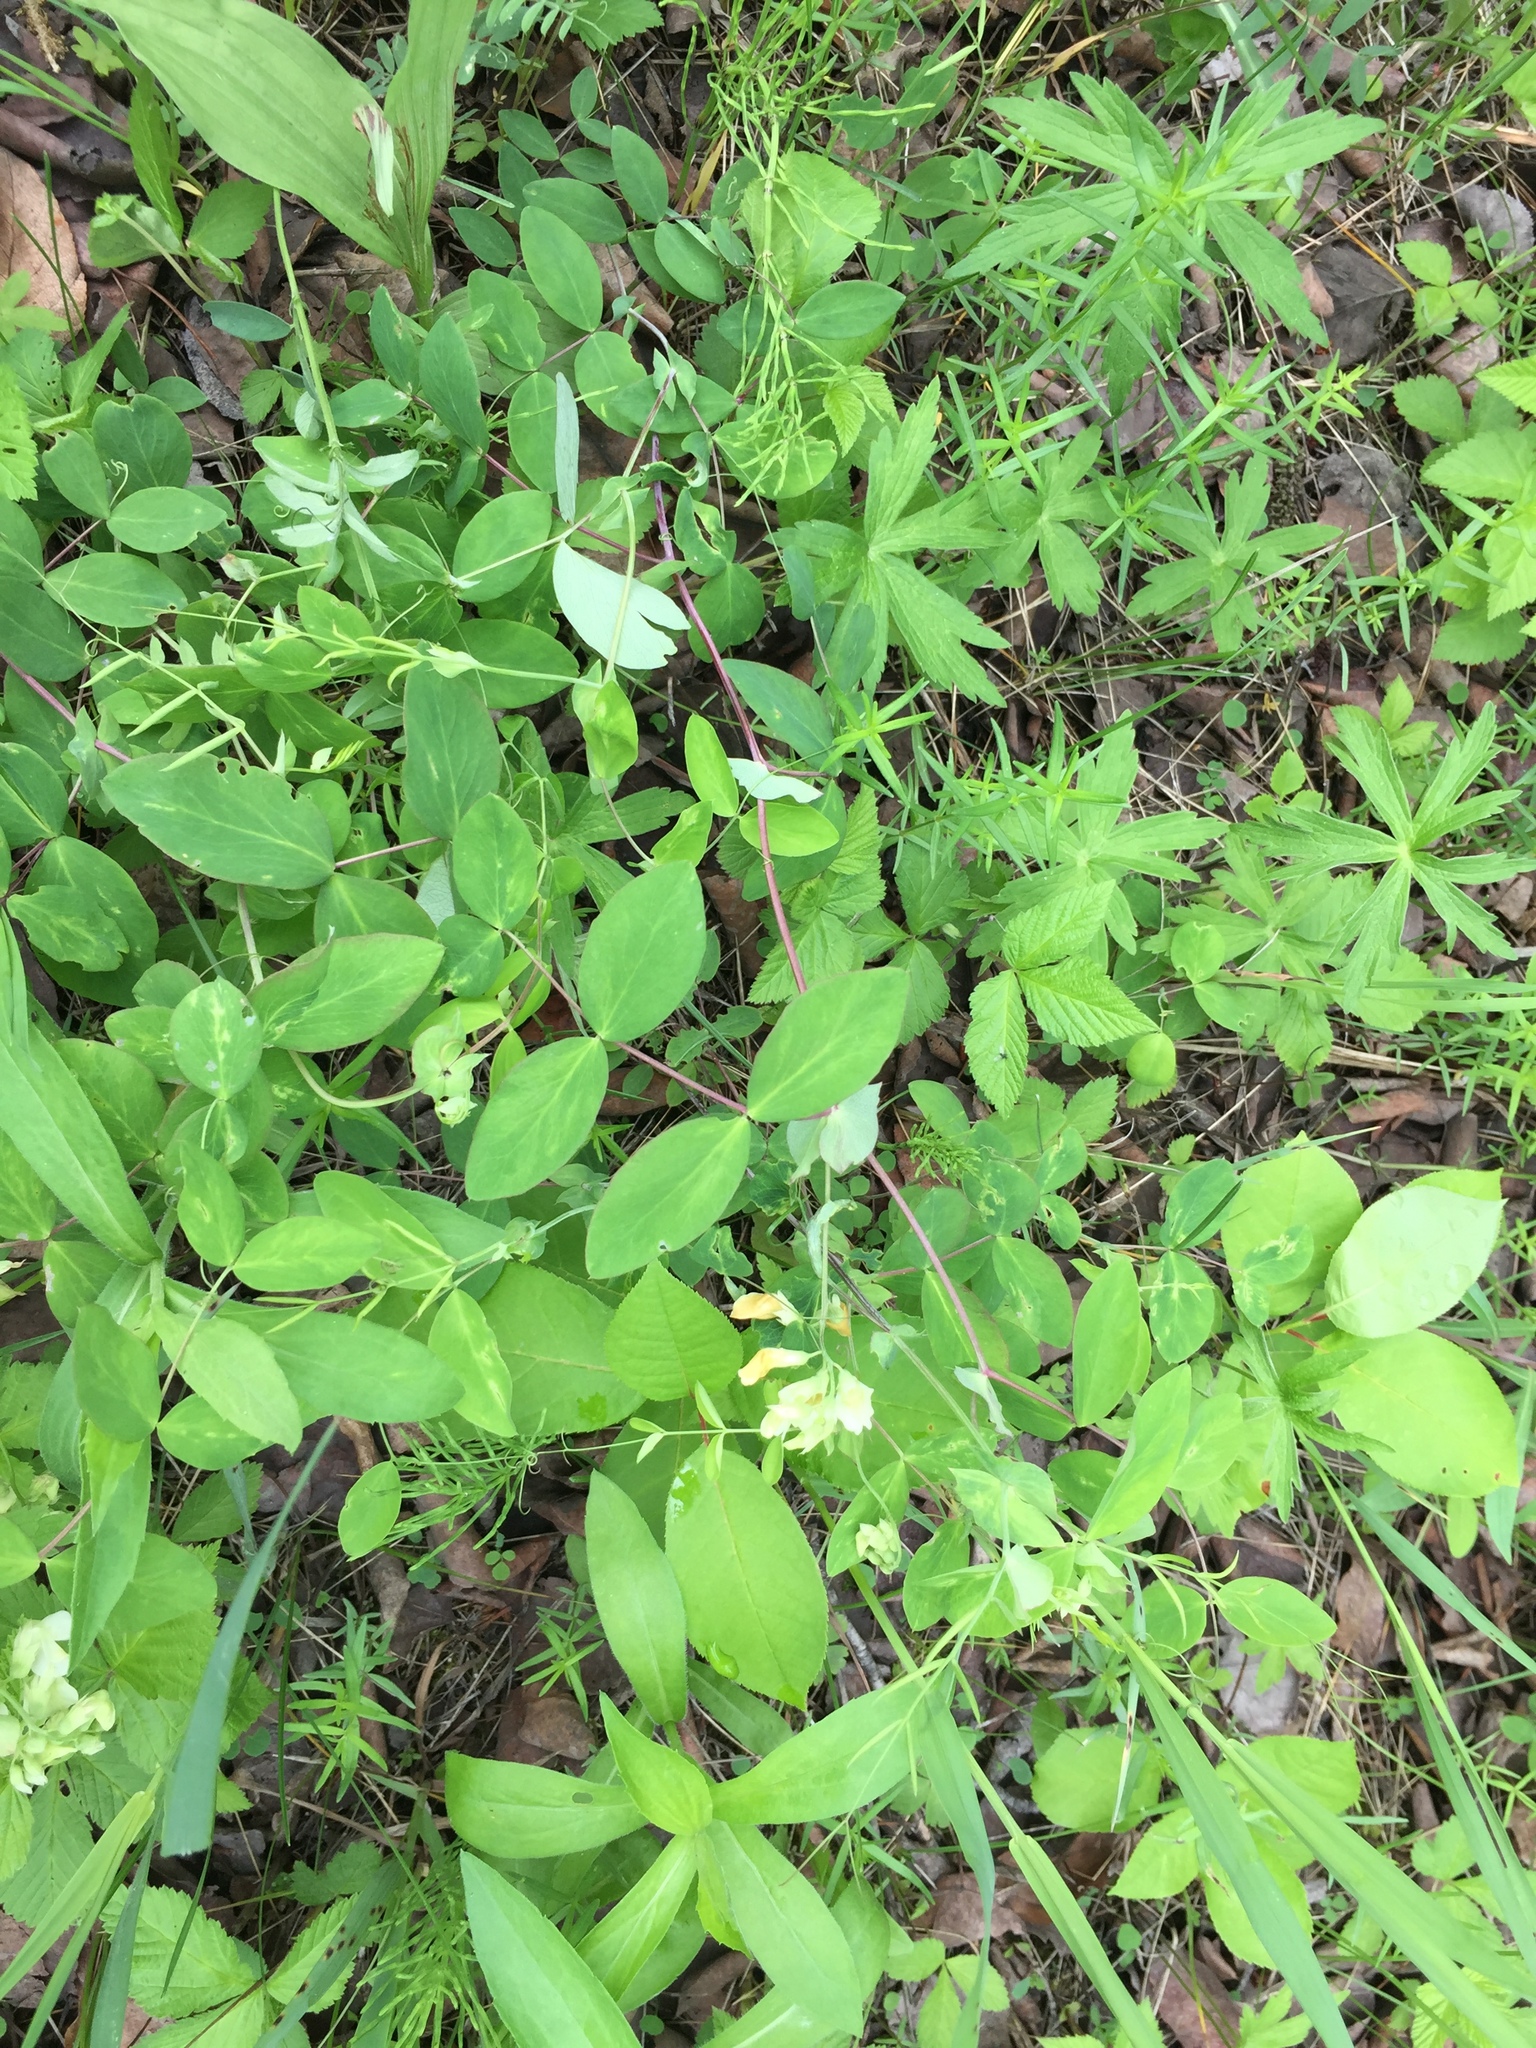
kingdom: Plantae
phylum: Tracheophyta
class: Magnoliopsida
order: Fabales
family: Fabaceae
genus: Lathyrus
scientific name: Lathyrus ochroleucus
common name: Pale vetchling
